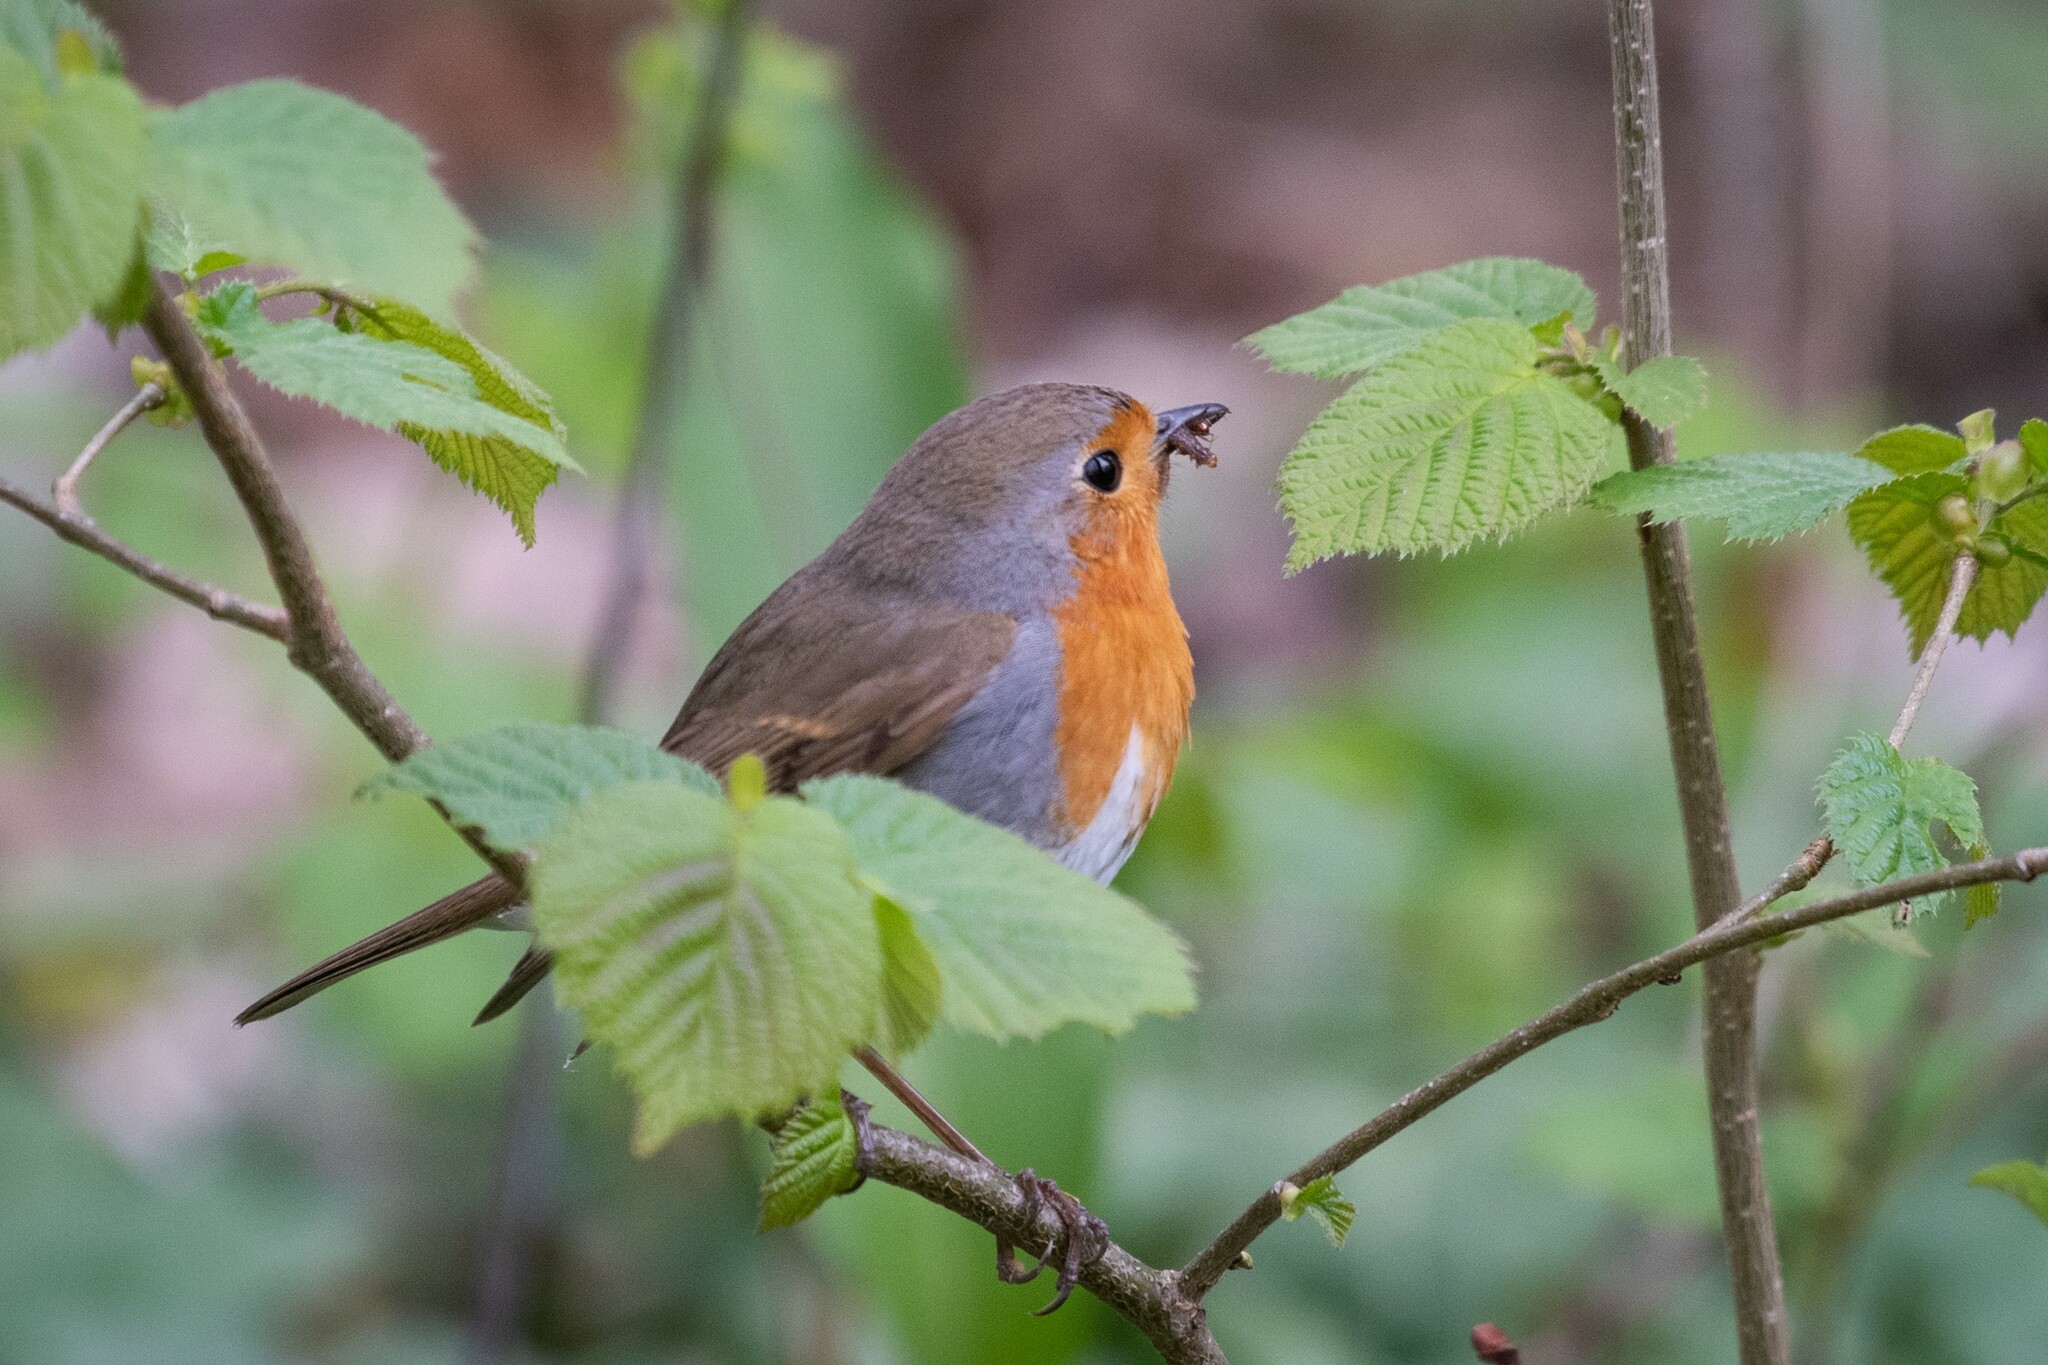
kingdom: Animalia
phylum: Chordata
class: Aves
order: Passeriformes
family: Muscicapidae
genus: Erithacus
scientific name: Erithacus rubecula
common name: European robin
